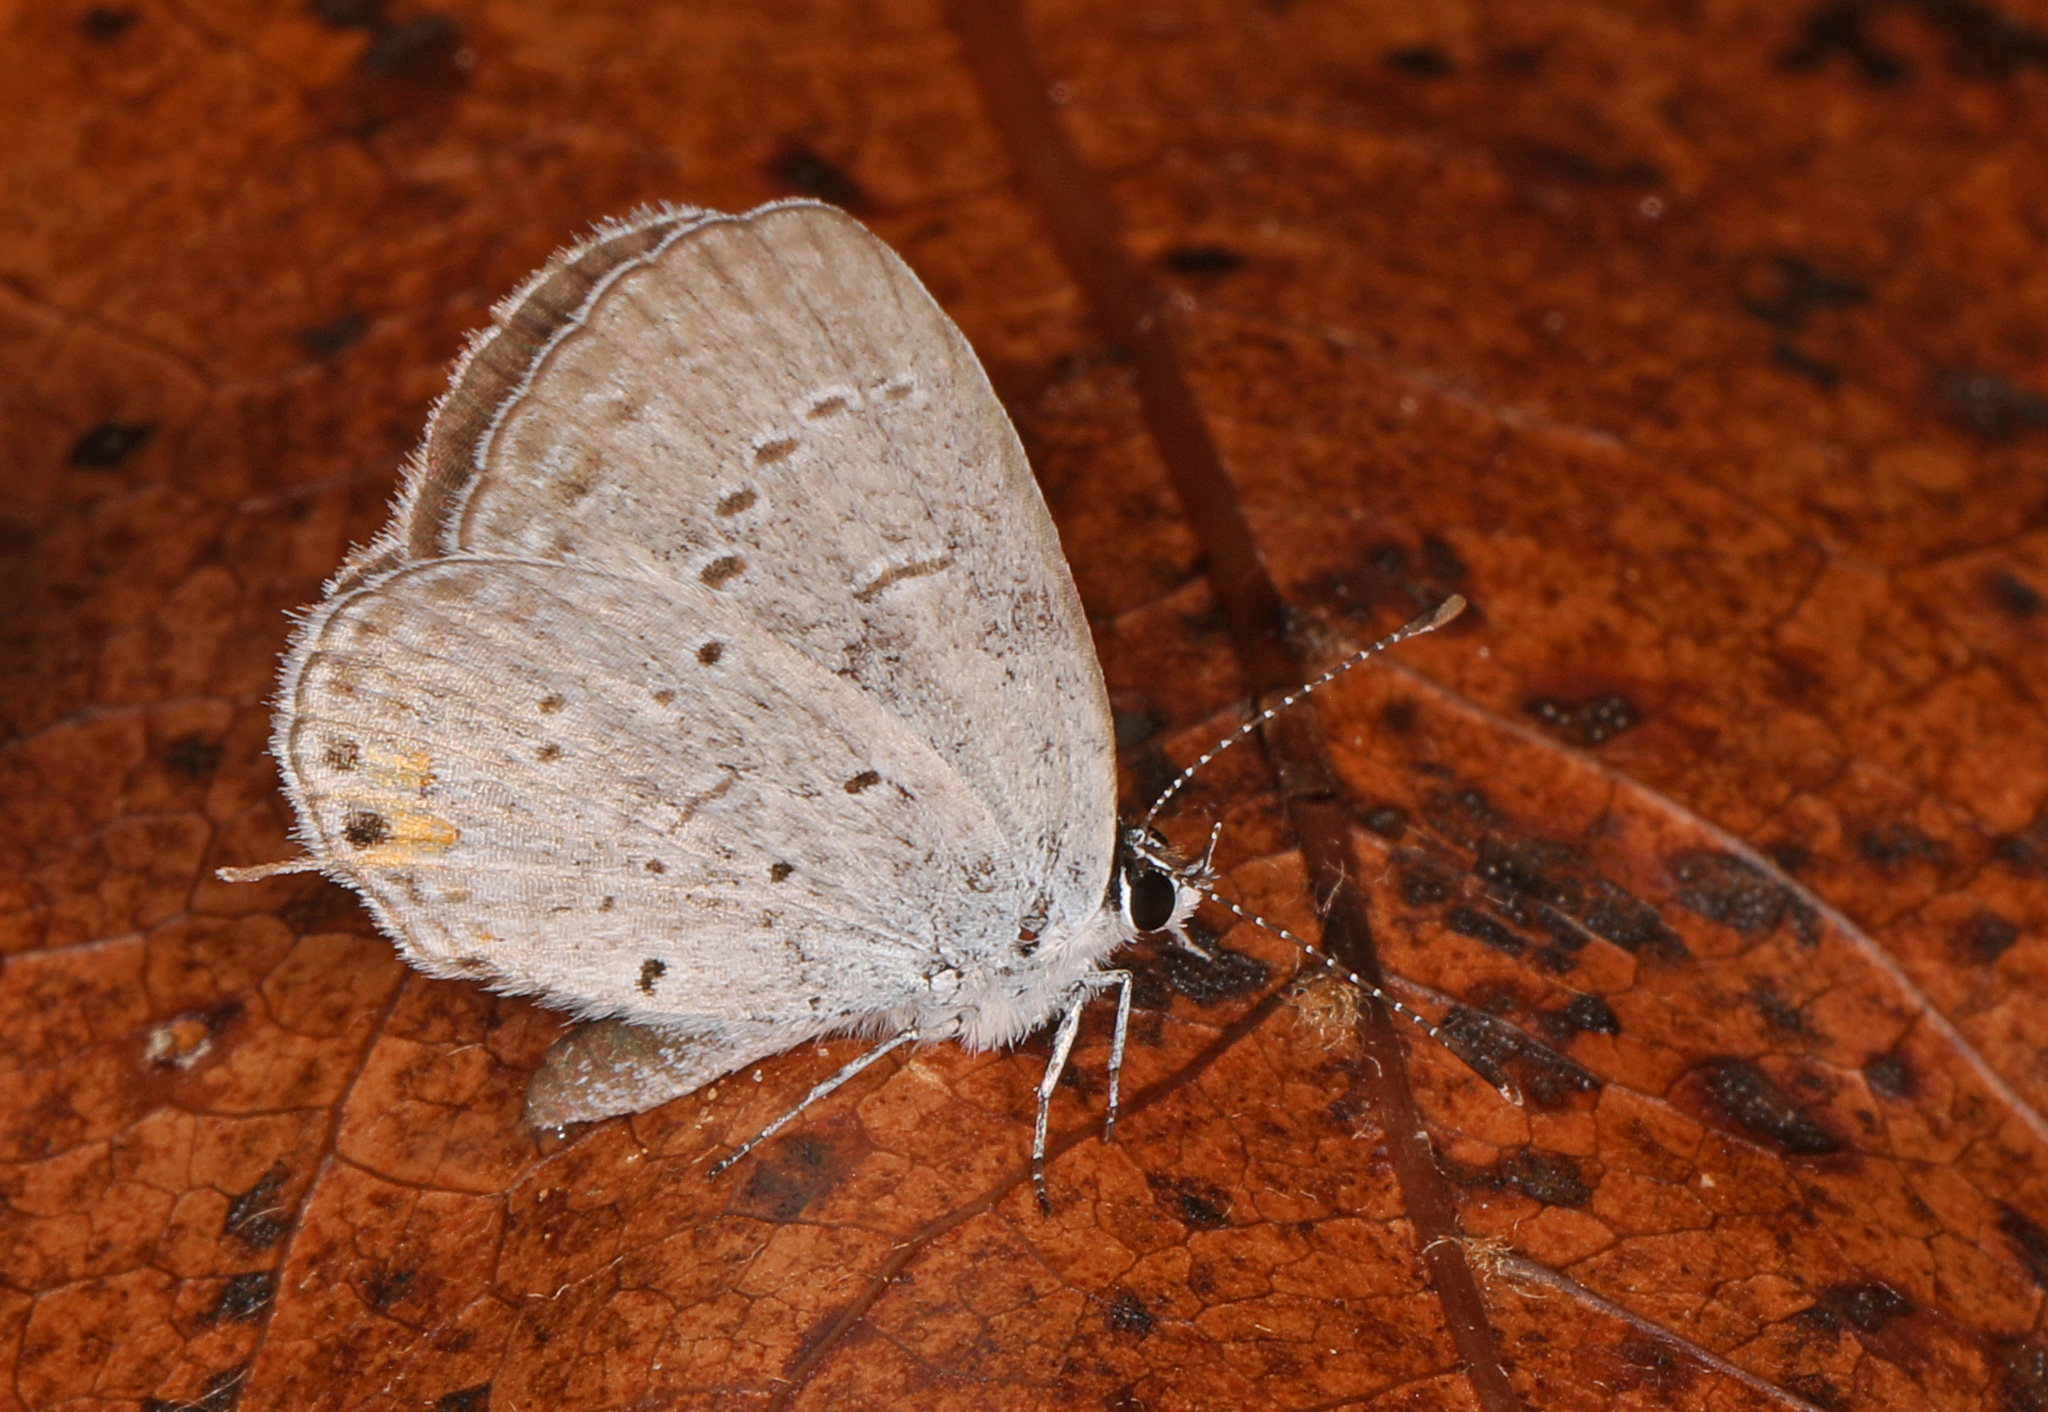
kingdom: Animalia
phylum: Arthropoda
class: Insecta
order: Lepidoptera
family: Lycaenidae
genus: Elkalyce
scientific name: Elkalyce comyntas
